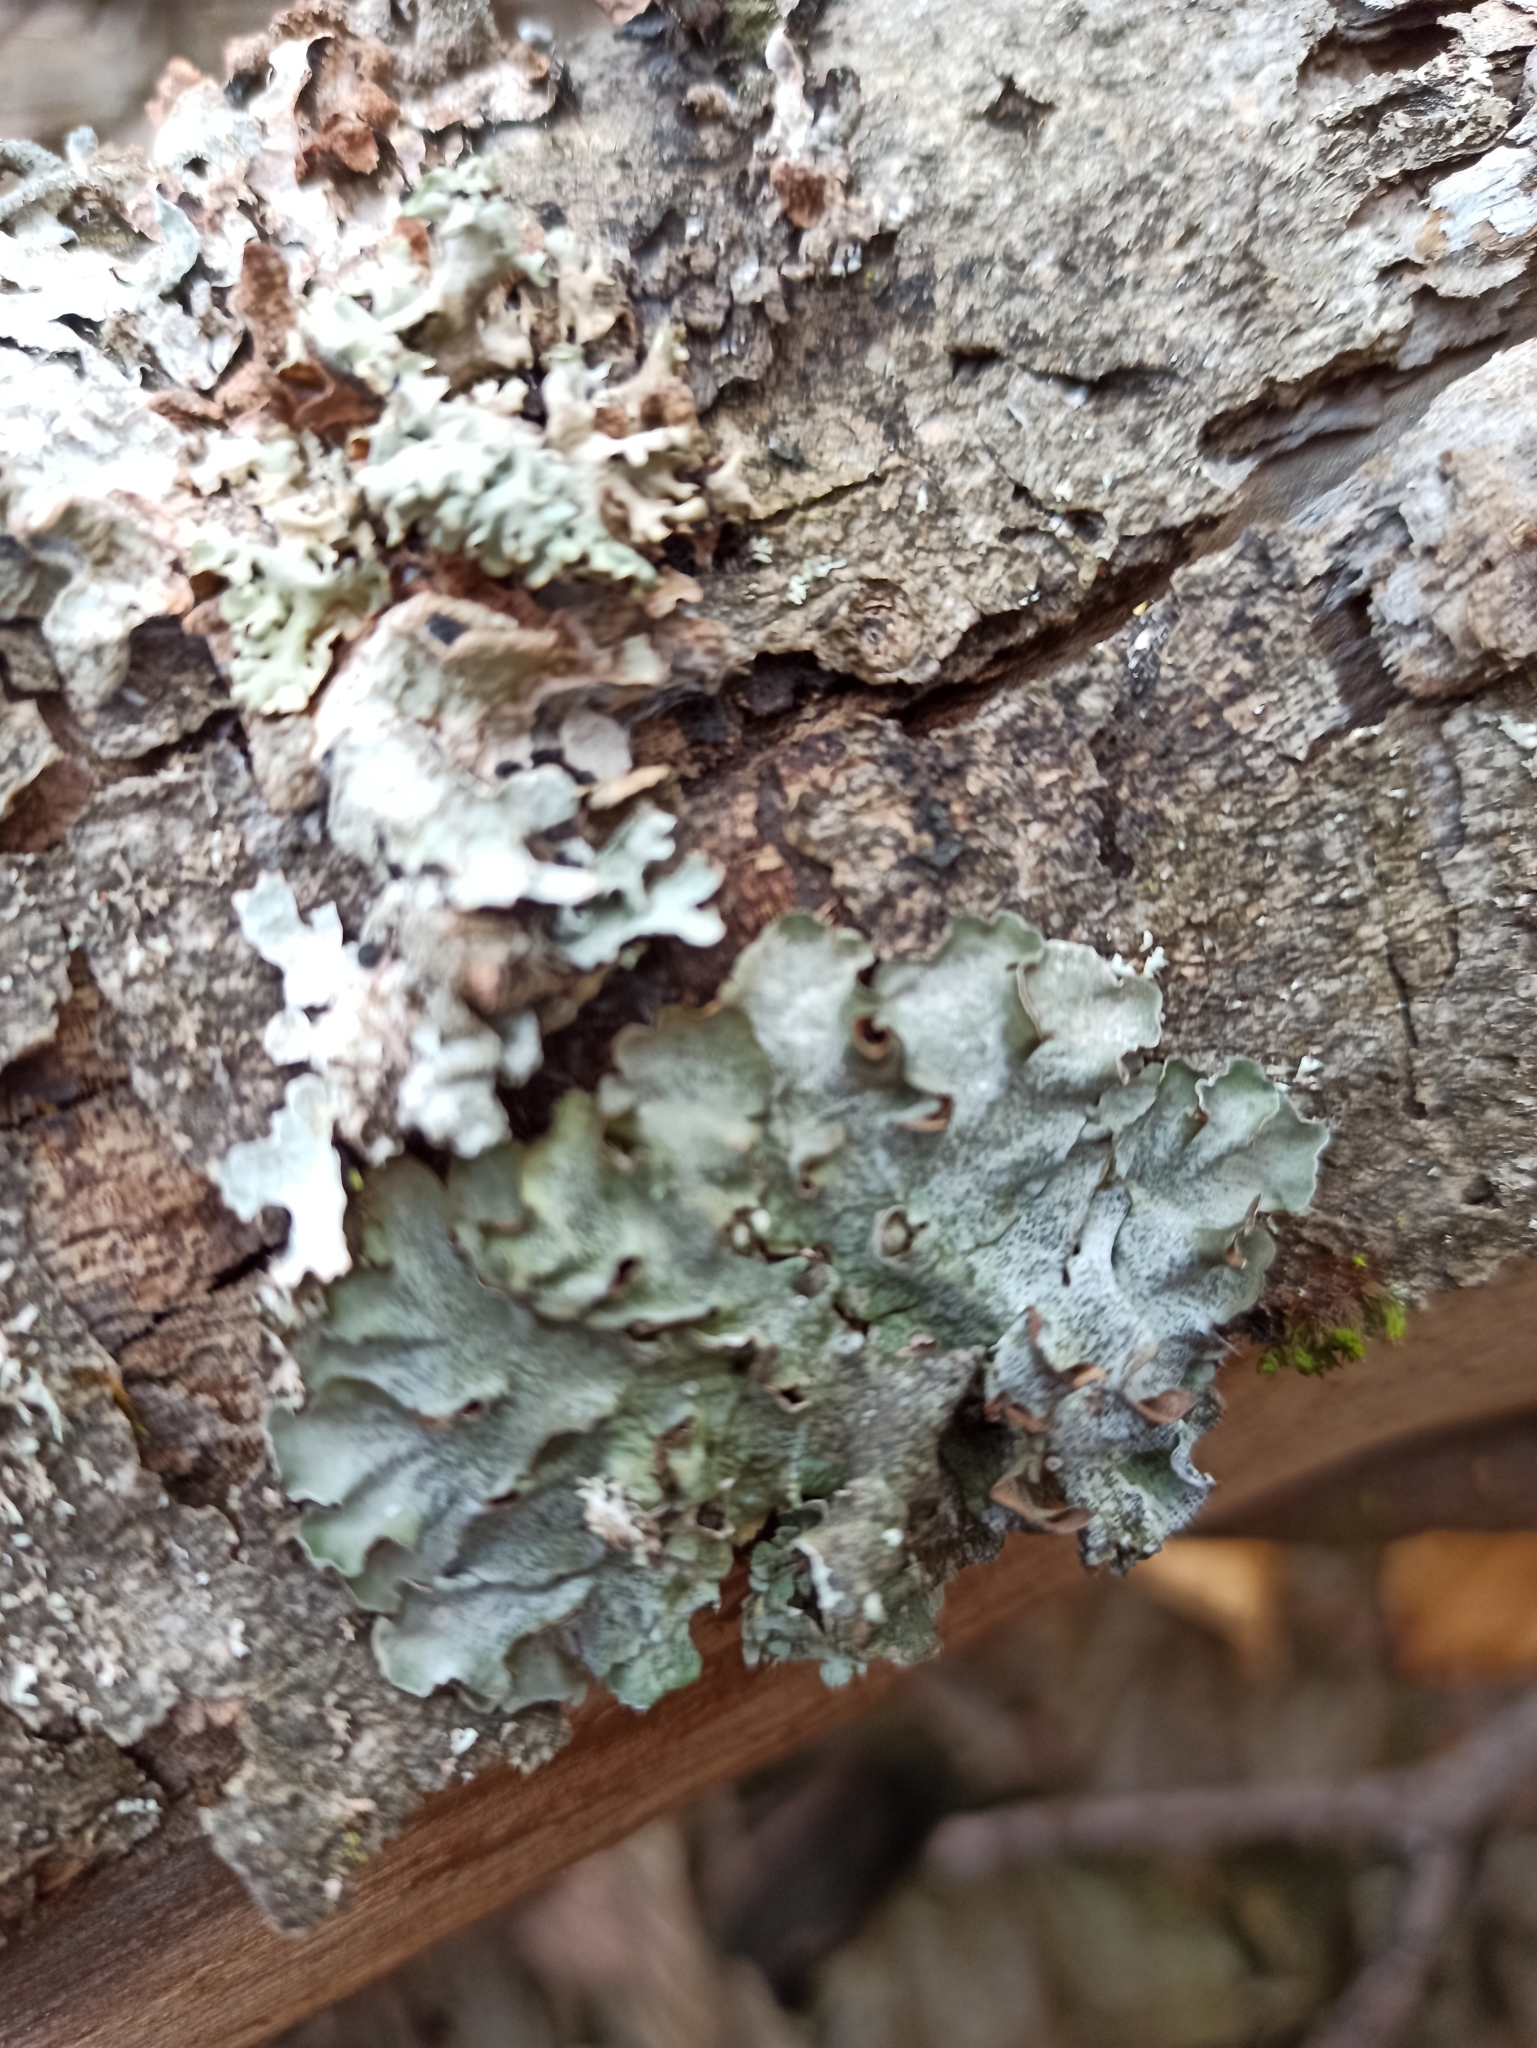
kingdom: Fungi
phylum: Ascomycota
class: Lecanoromycetes
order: Lecanorales
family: Parmeliaceae
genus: Pleurosticta
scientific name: Pleurosticta acetabulum
